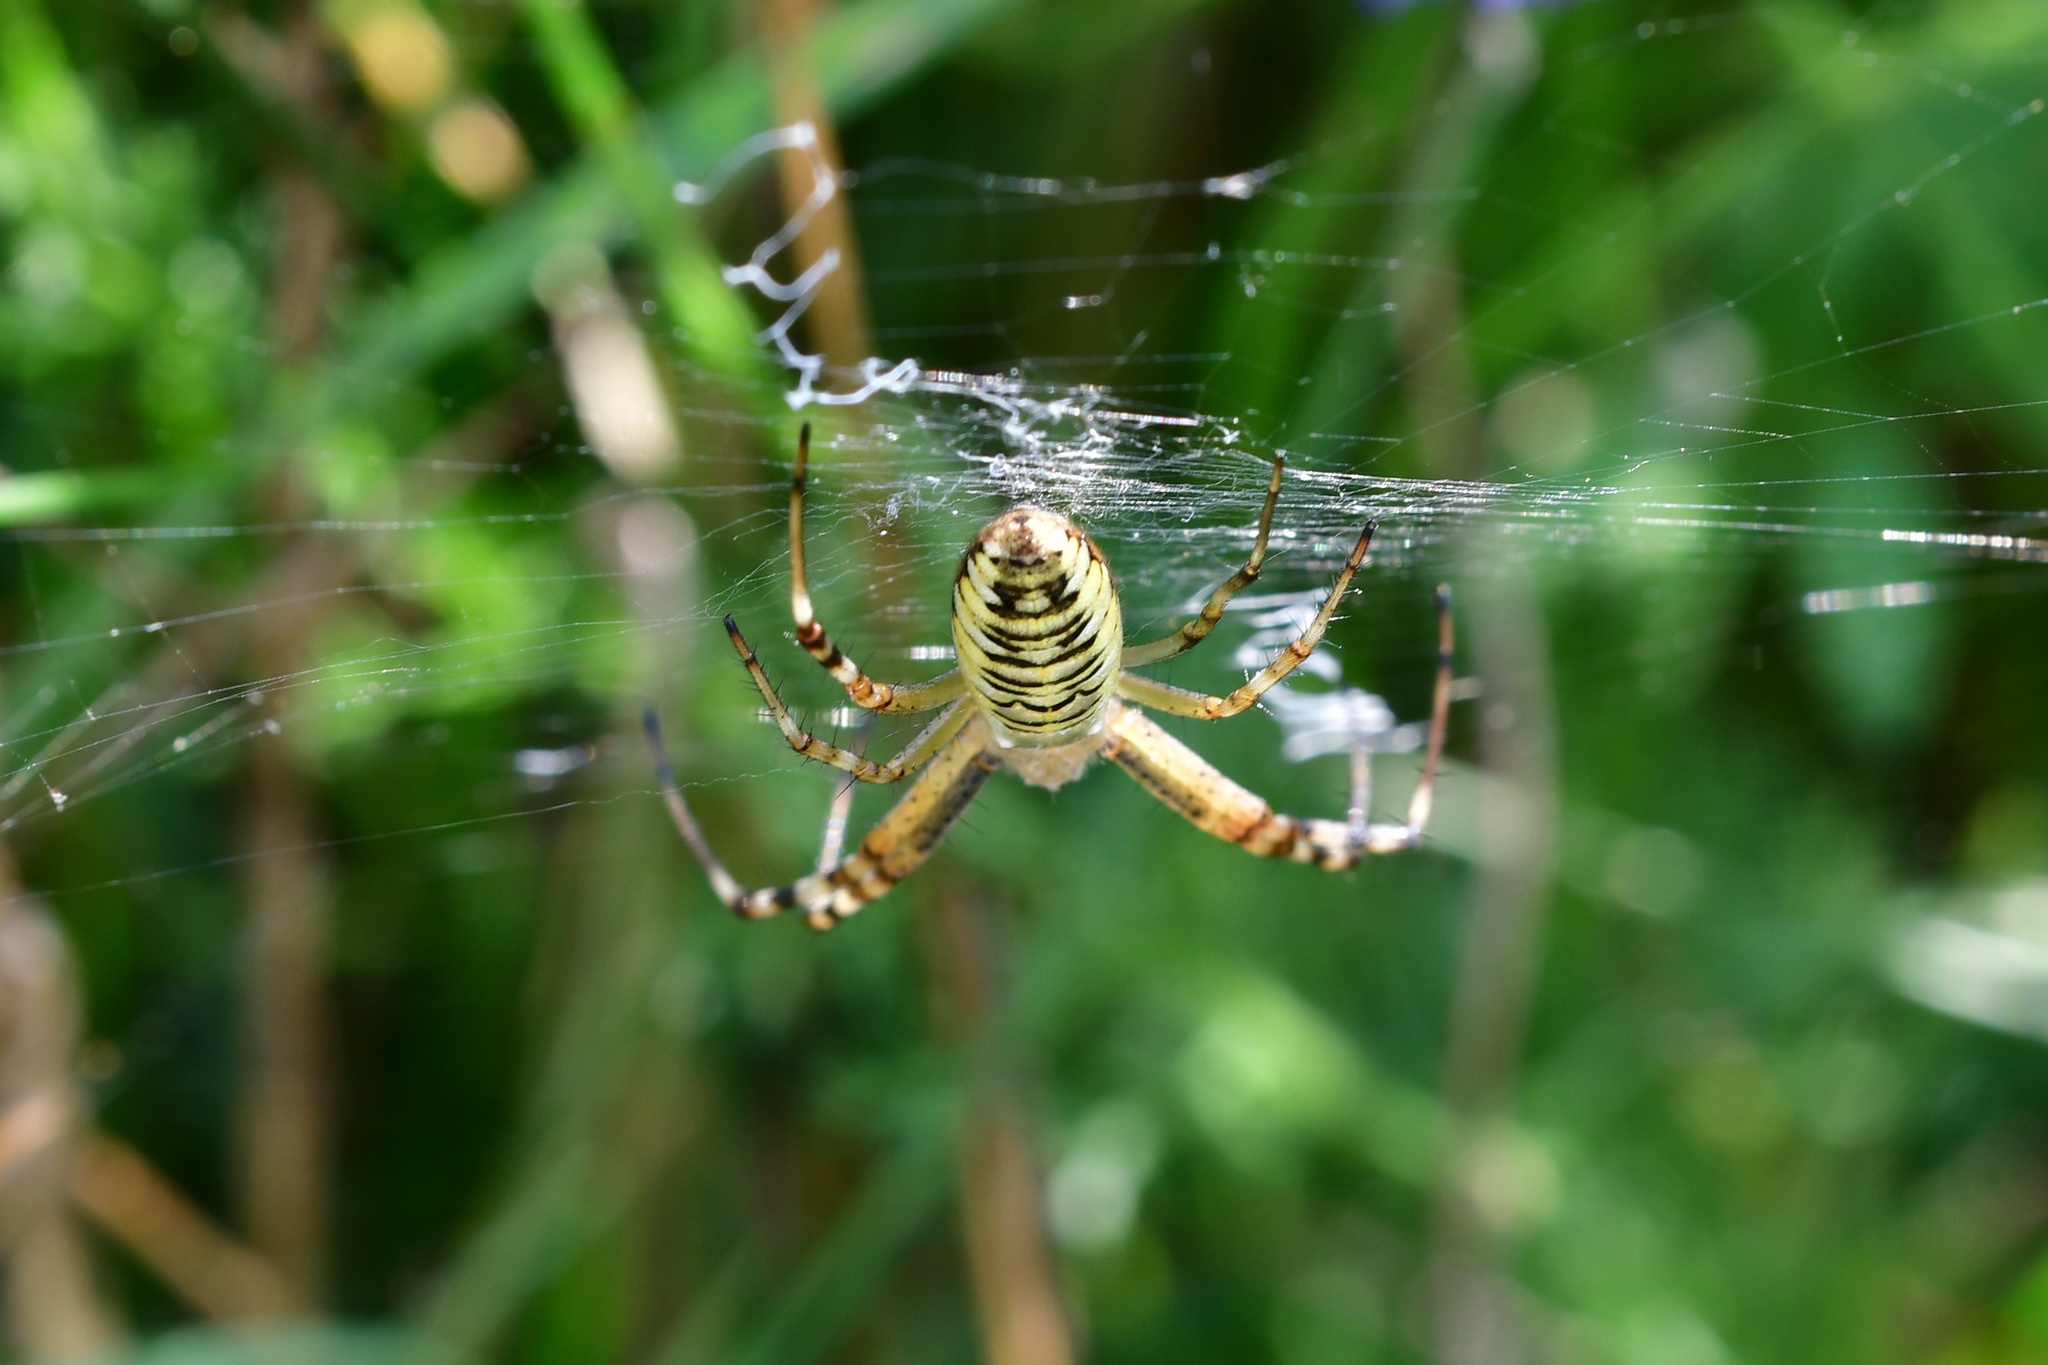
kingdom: Animalia
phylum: Arthropoda
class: Arachnida
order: Araneae
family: Araneidae
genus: Argiope
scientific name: Argiope bruennichi
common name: Wasp spider
